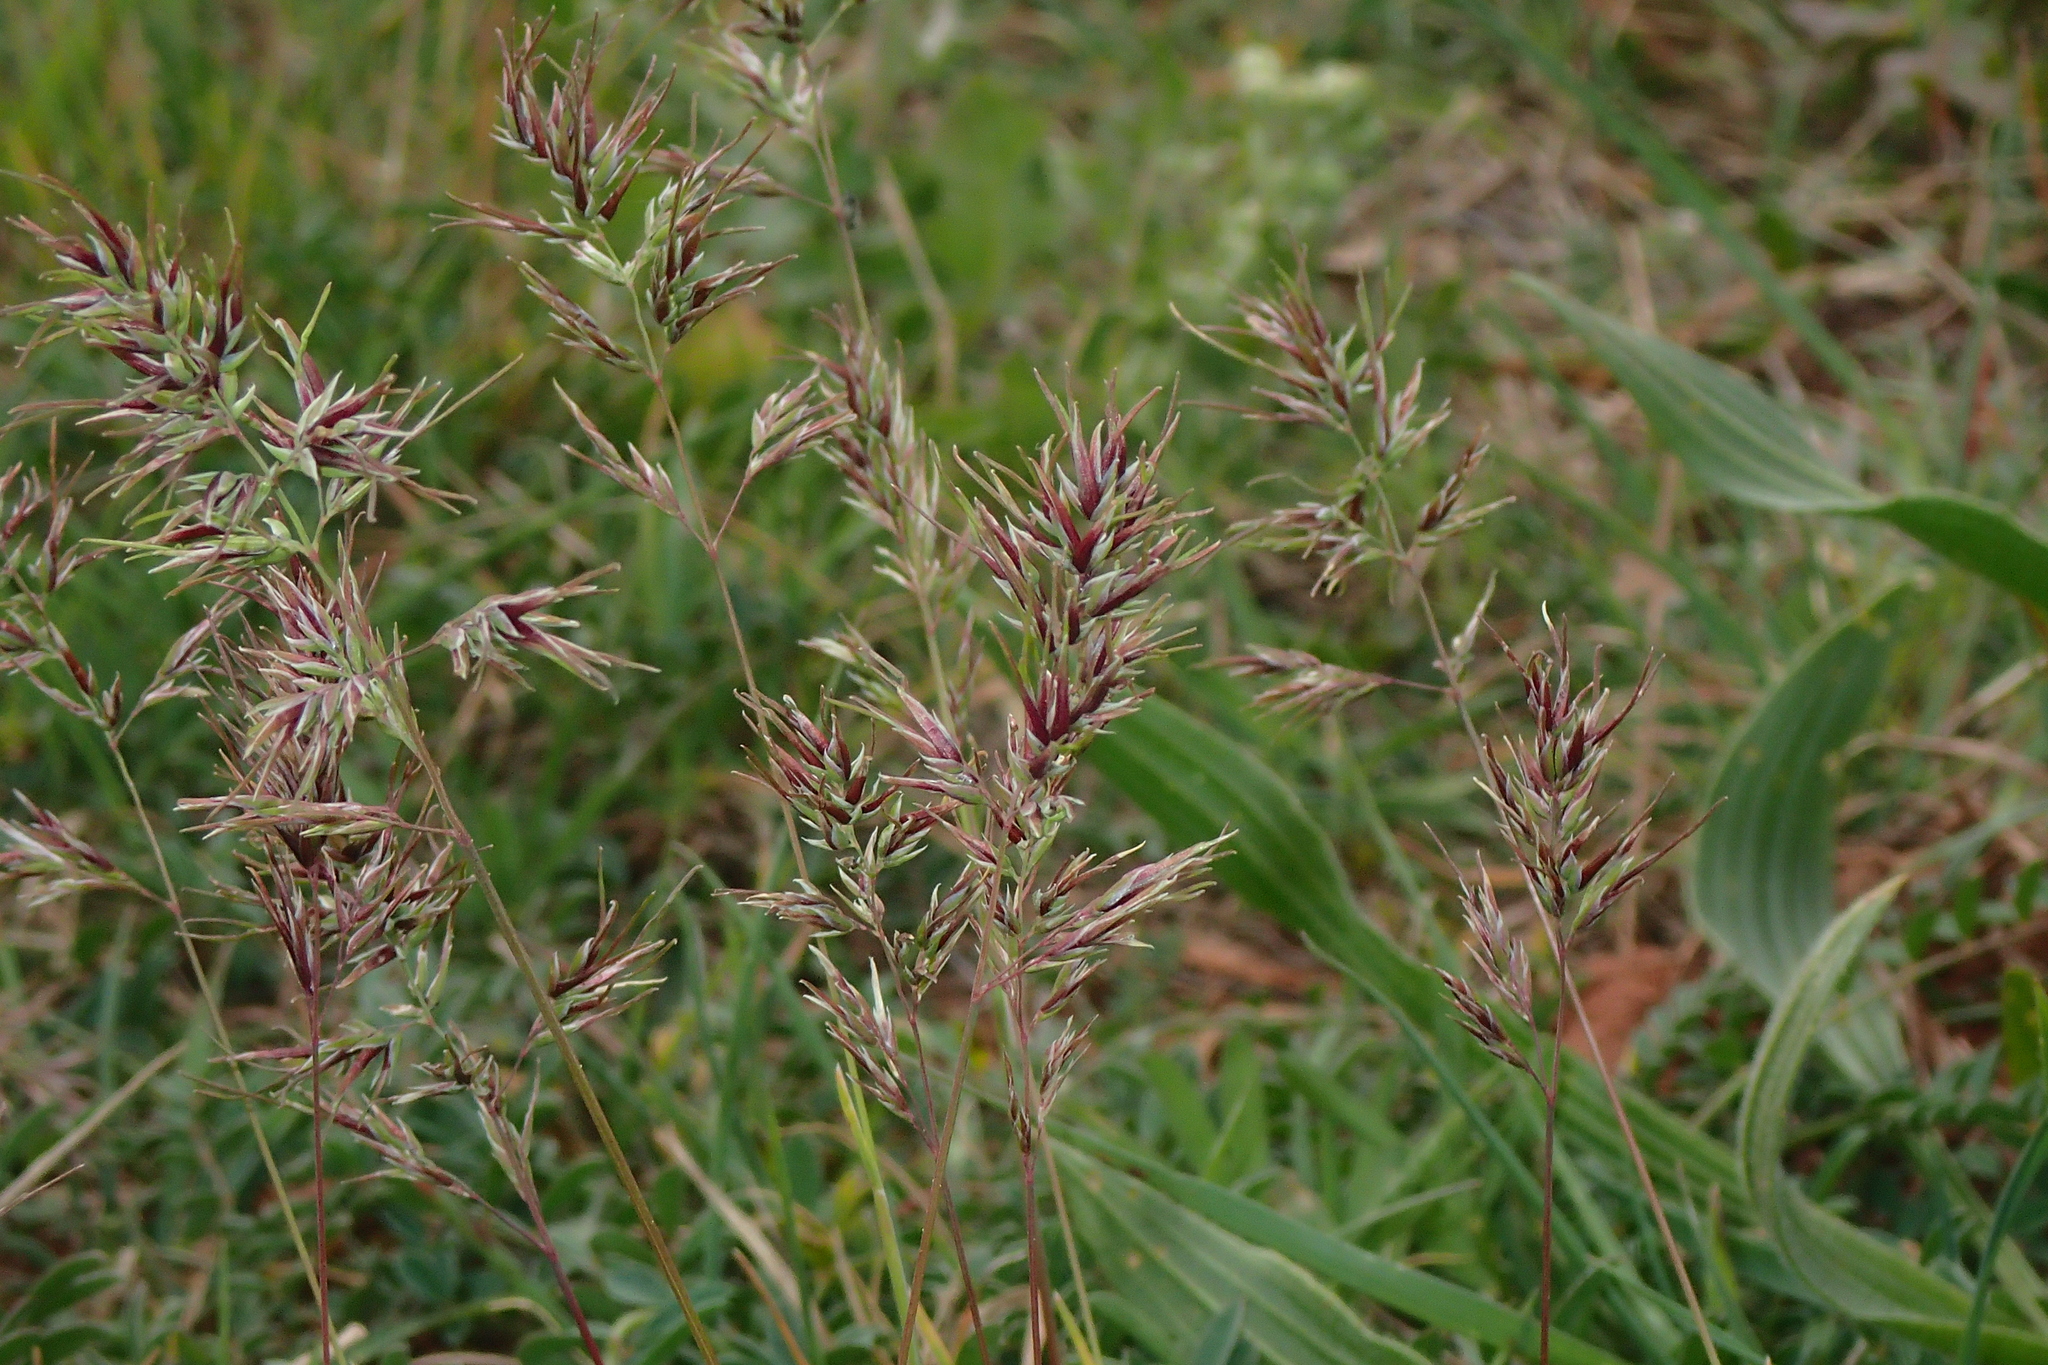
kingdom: Plantae
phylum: Tracheophyta
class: Liliopsida
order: Poales
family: Poaceae
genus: Poa
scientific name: Poa bulbosa
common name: Bulbous bluegrass
